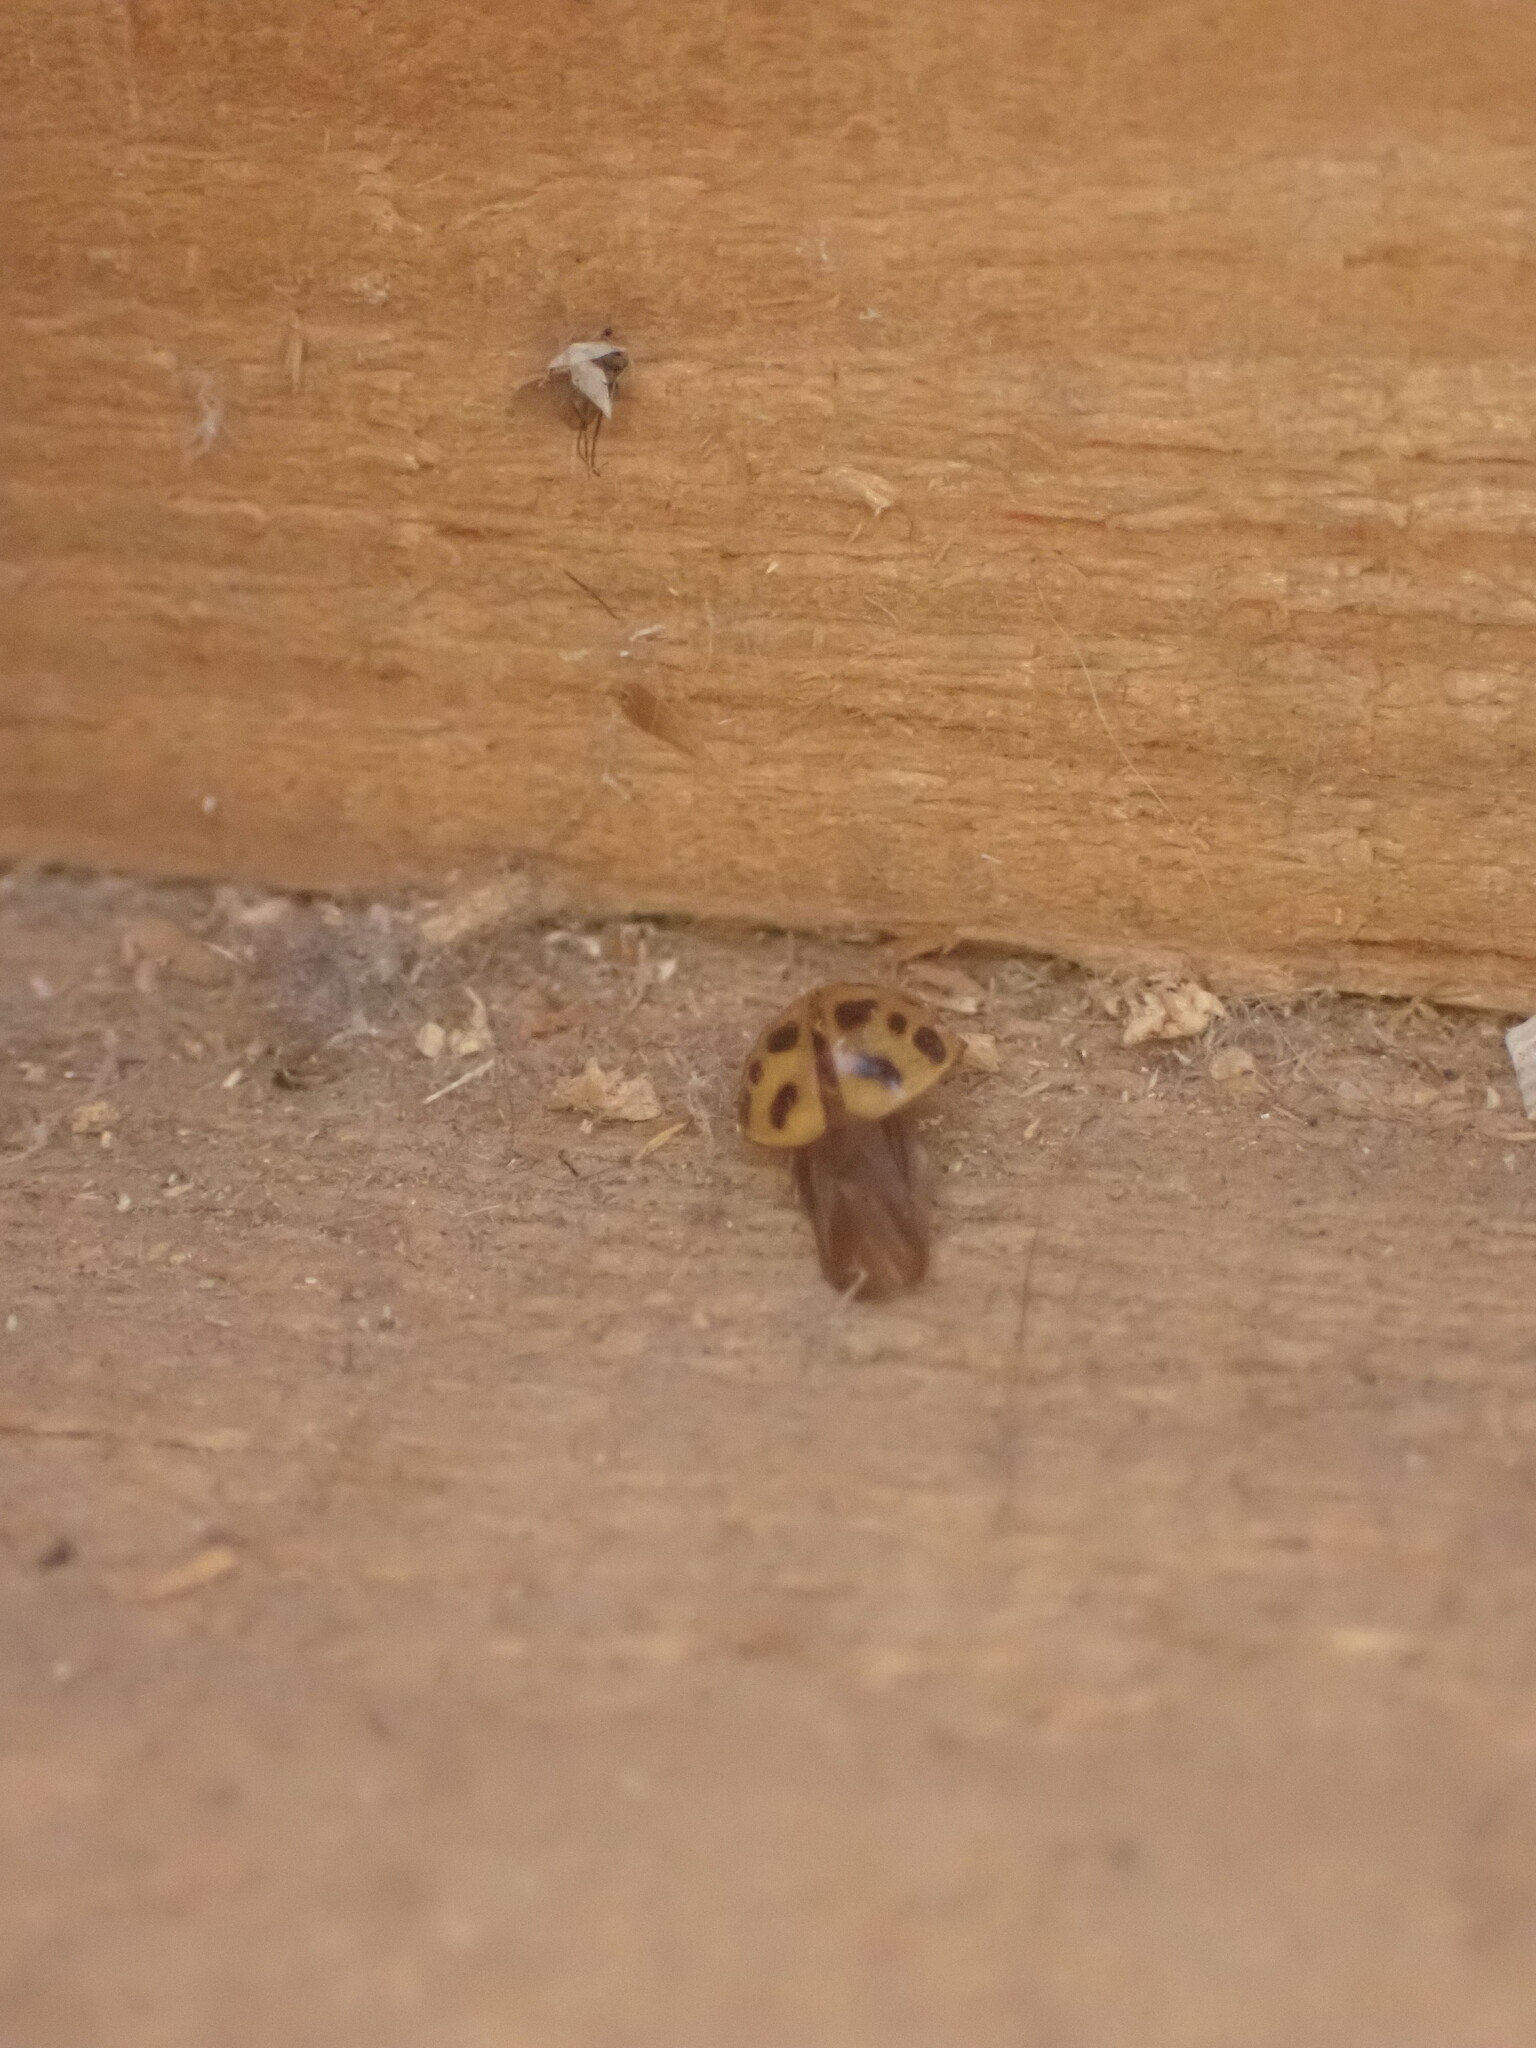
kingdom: Animalia
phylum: Arthropoda
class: Insecta
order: Coleoptera
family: Coccinellidae
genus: Harmonia
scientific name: Harmonia axyridis
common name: Harlequin ladybird
